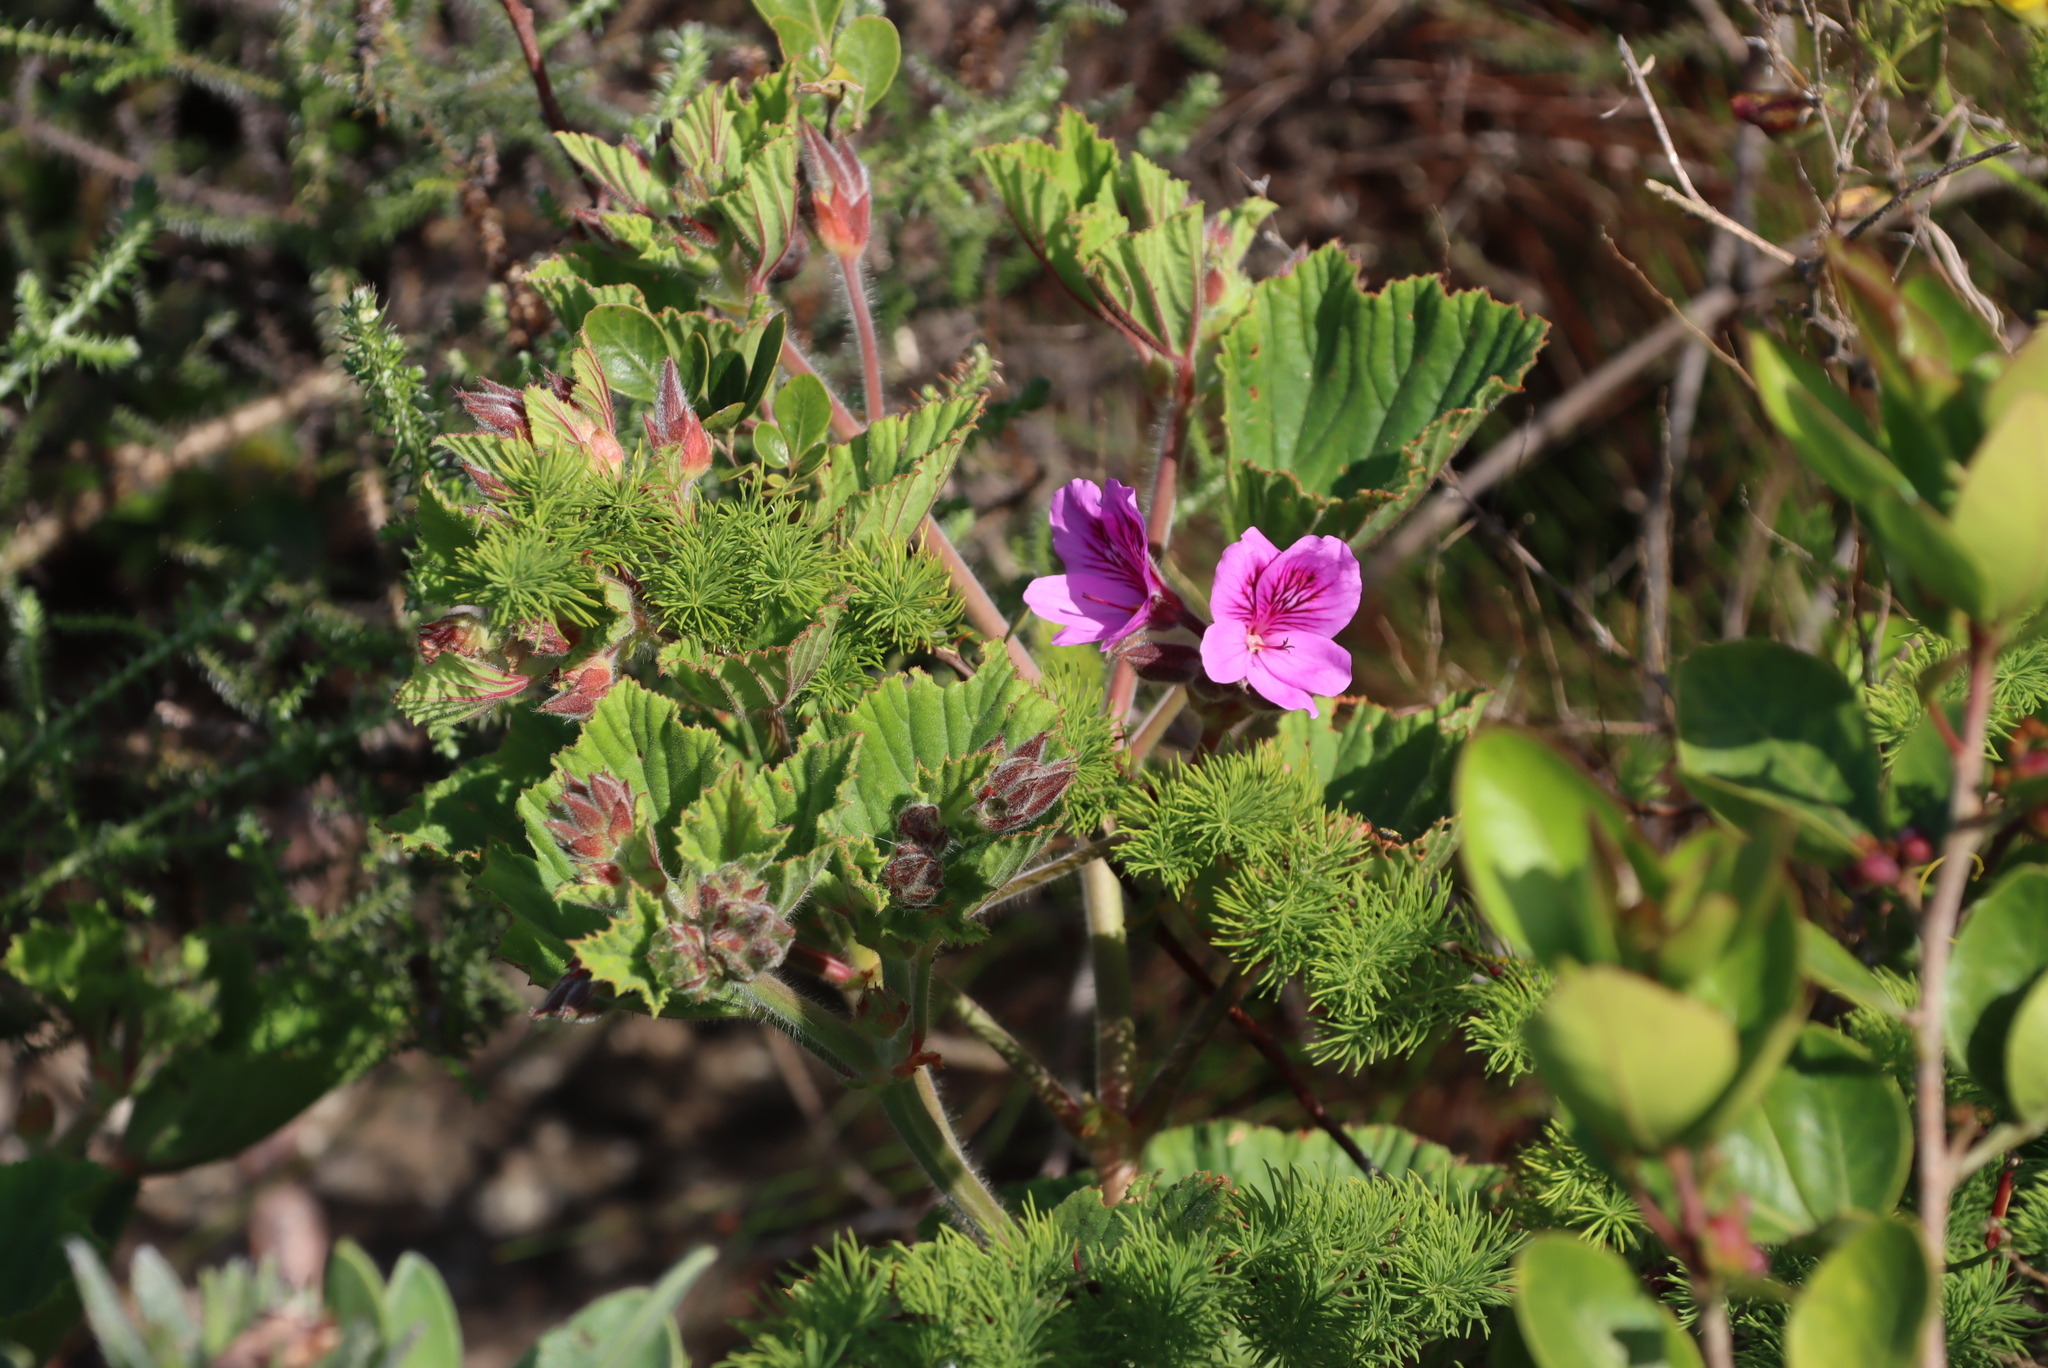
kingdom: Plantae
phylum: Tracheophyta
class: Magnoliopsida
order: Geraniales
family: Geraniaceae
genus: Pelargonium
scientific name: Pelargonium cucullatum
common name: Tree pelargonium
